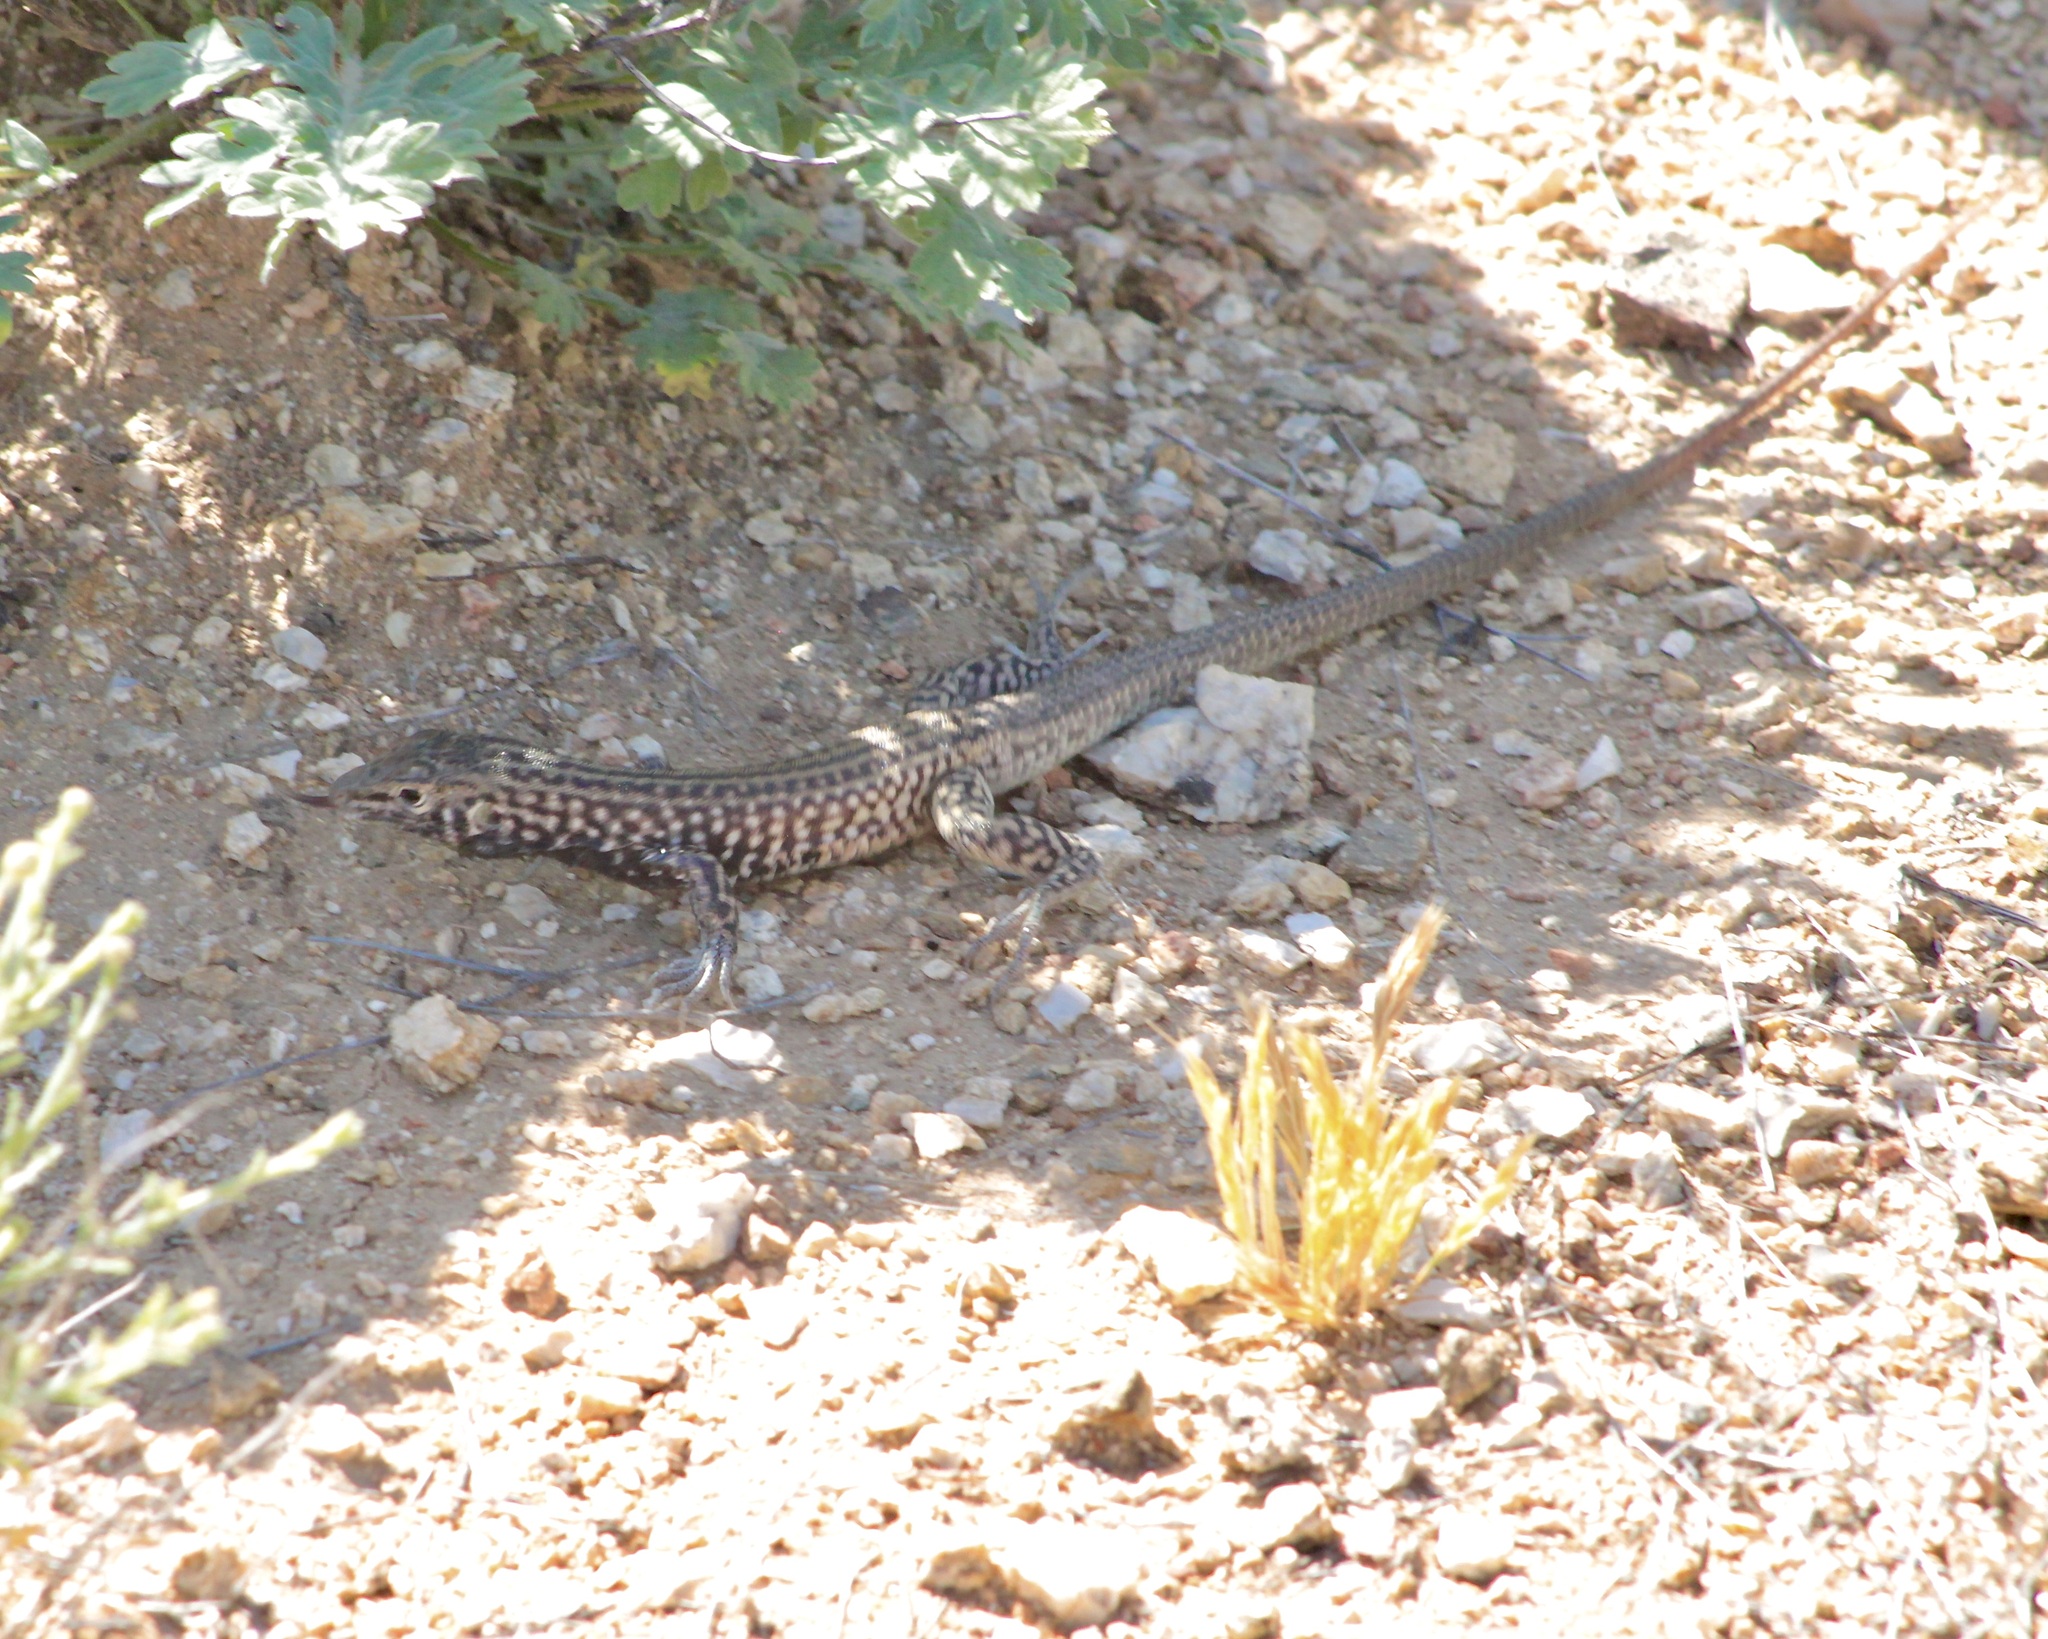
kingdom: Animalia
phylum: Chordata
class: Squamata
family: Teiidae
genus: Aspidoscelis
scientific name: Aspidoscelis tigris
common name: Tiger whiptail
